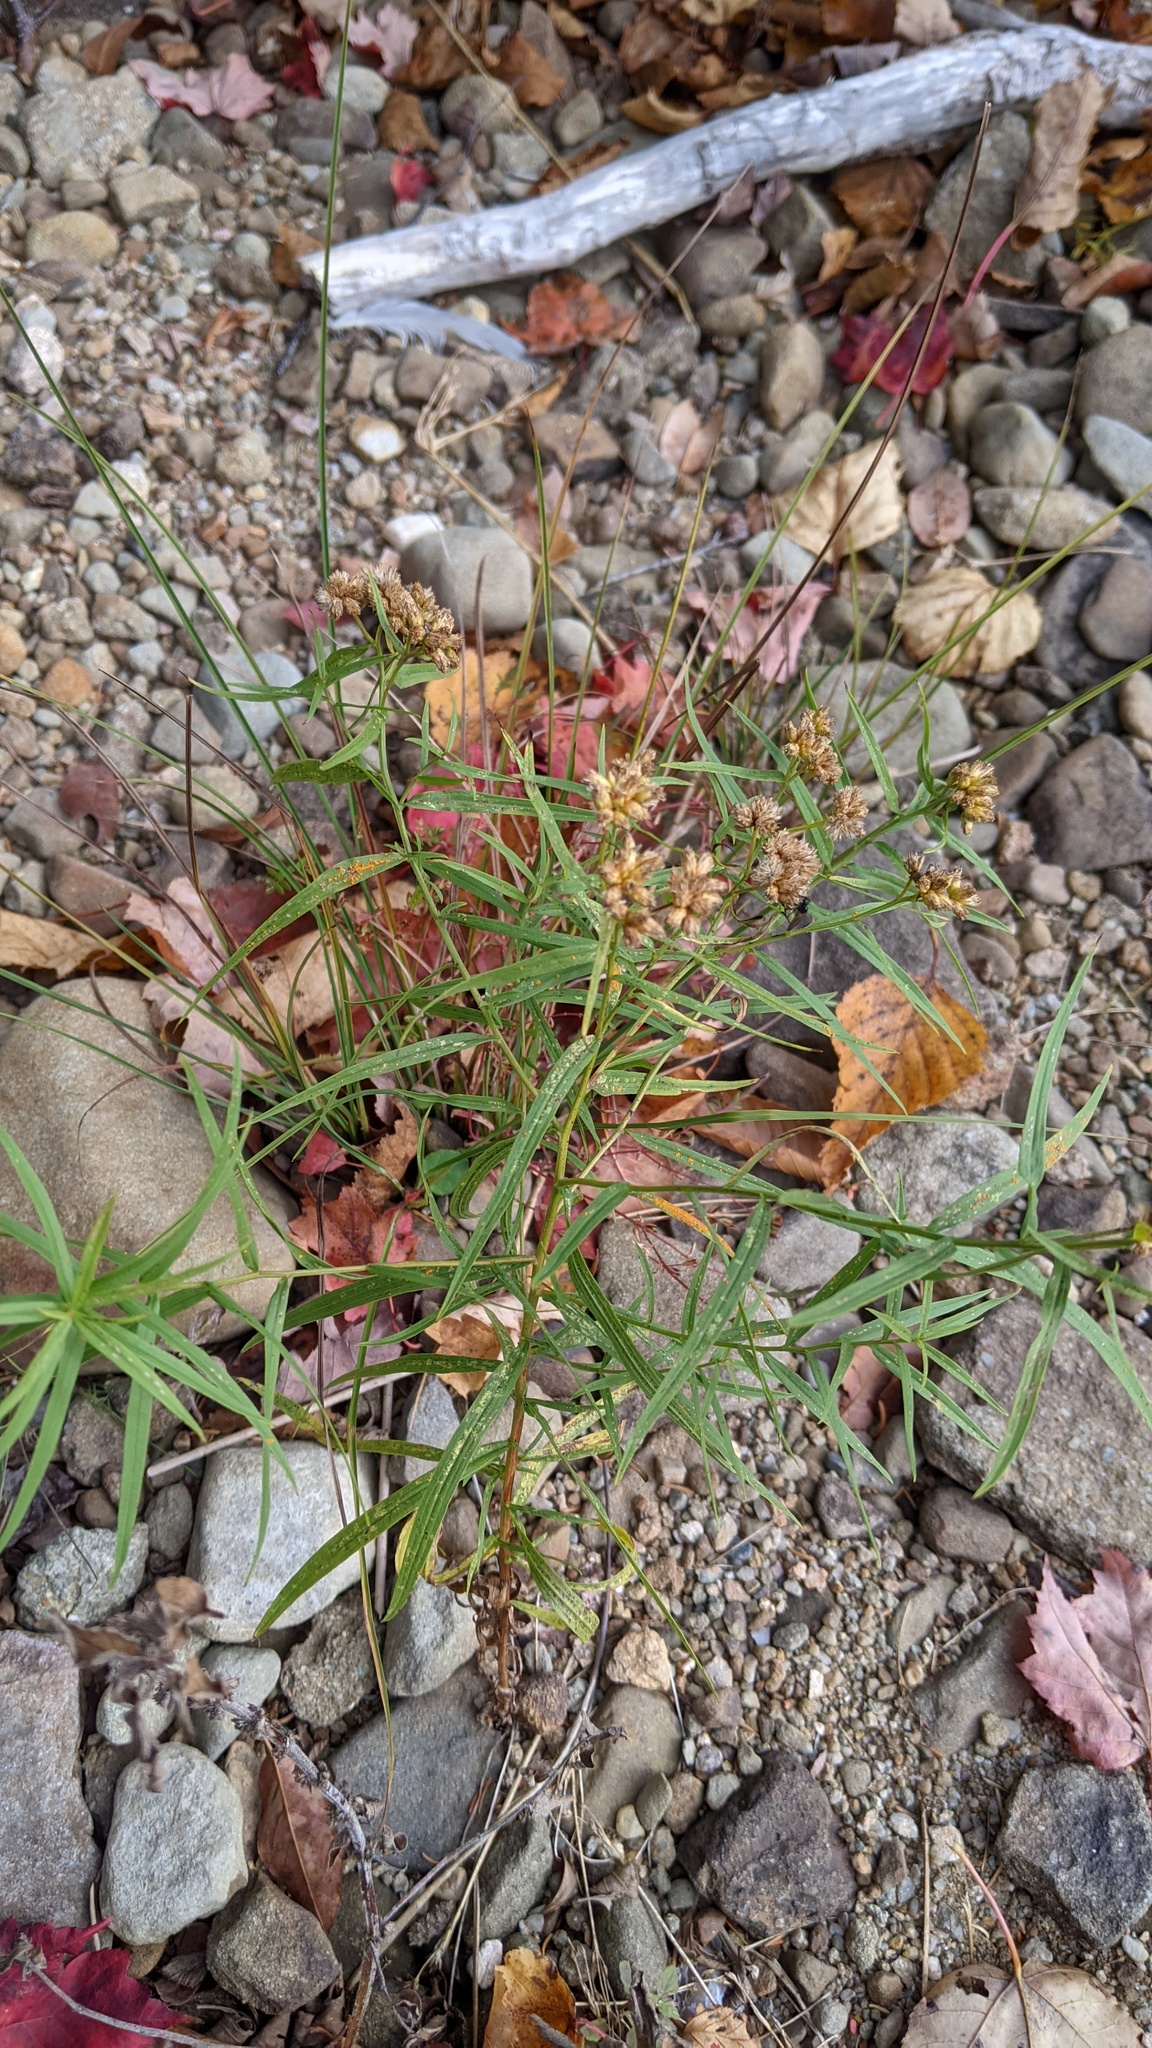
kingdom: Plantae
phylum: Tracheophyta
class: Magnoliopsida
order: Asterales
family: Asteraceae
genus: Euthamia
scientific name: Euthamia graminifolia
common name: Common goldentop
